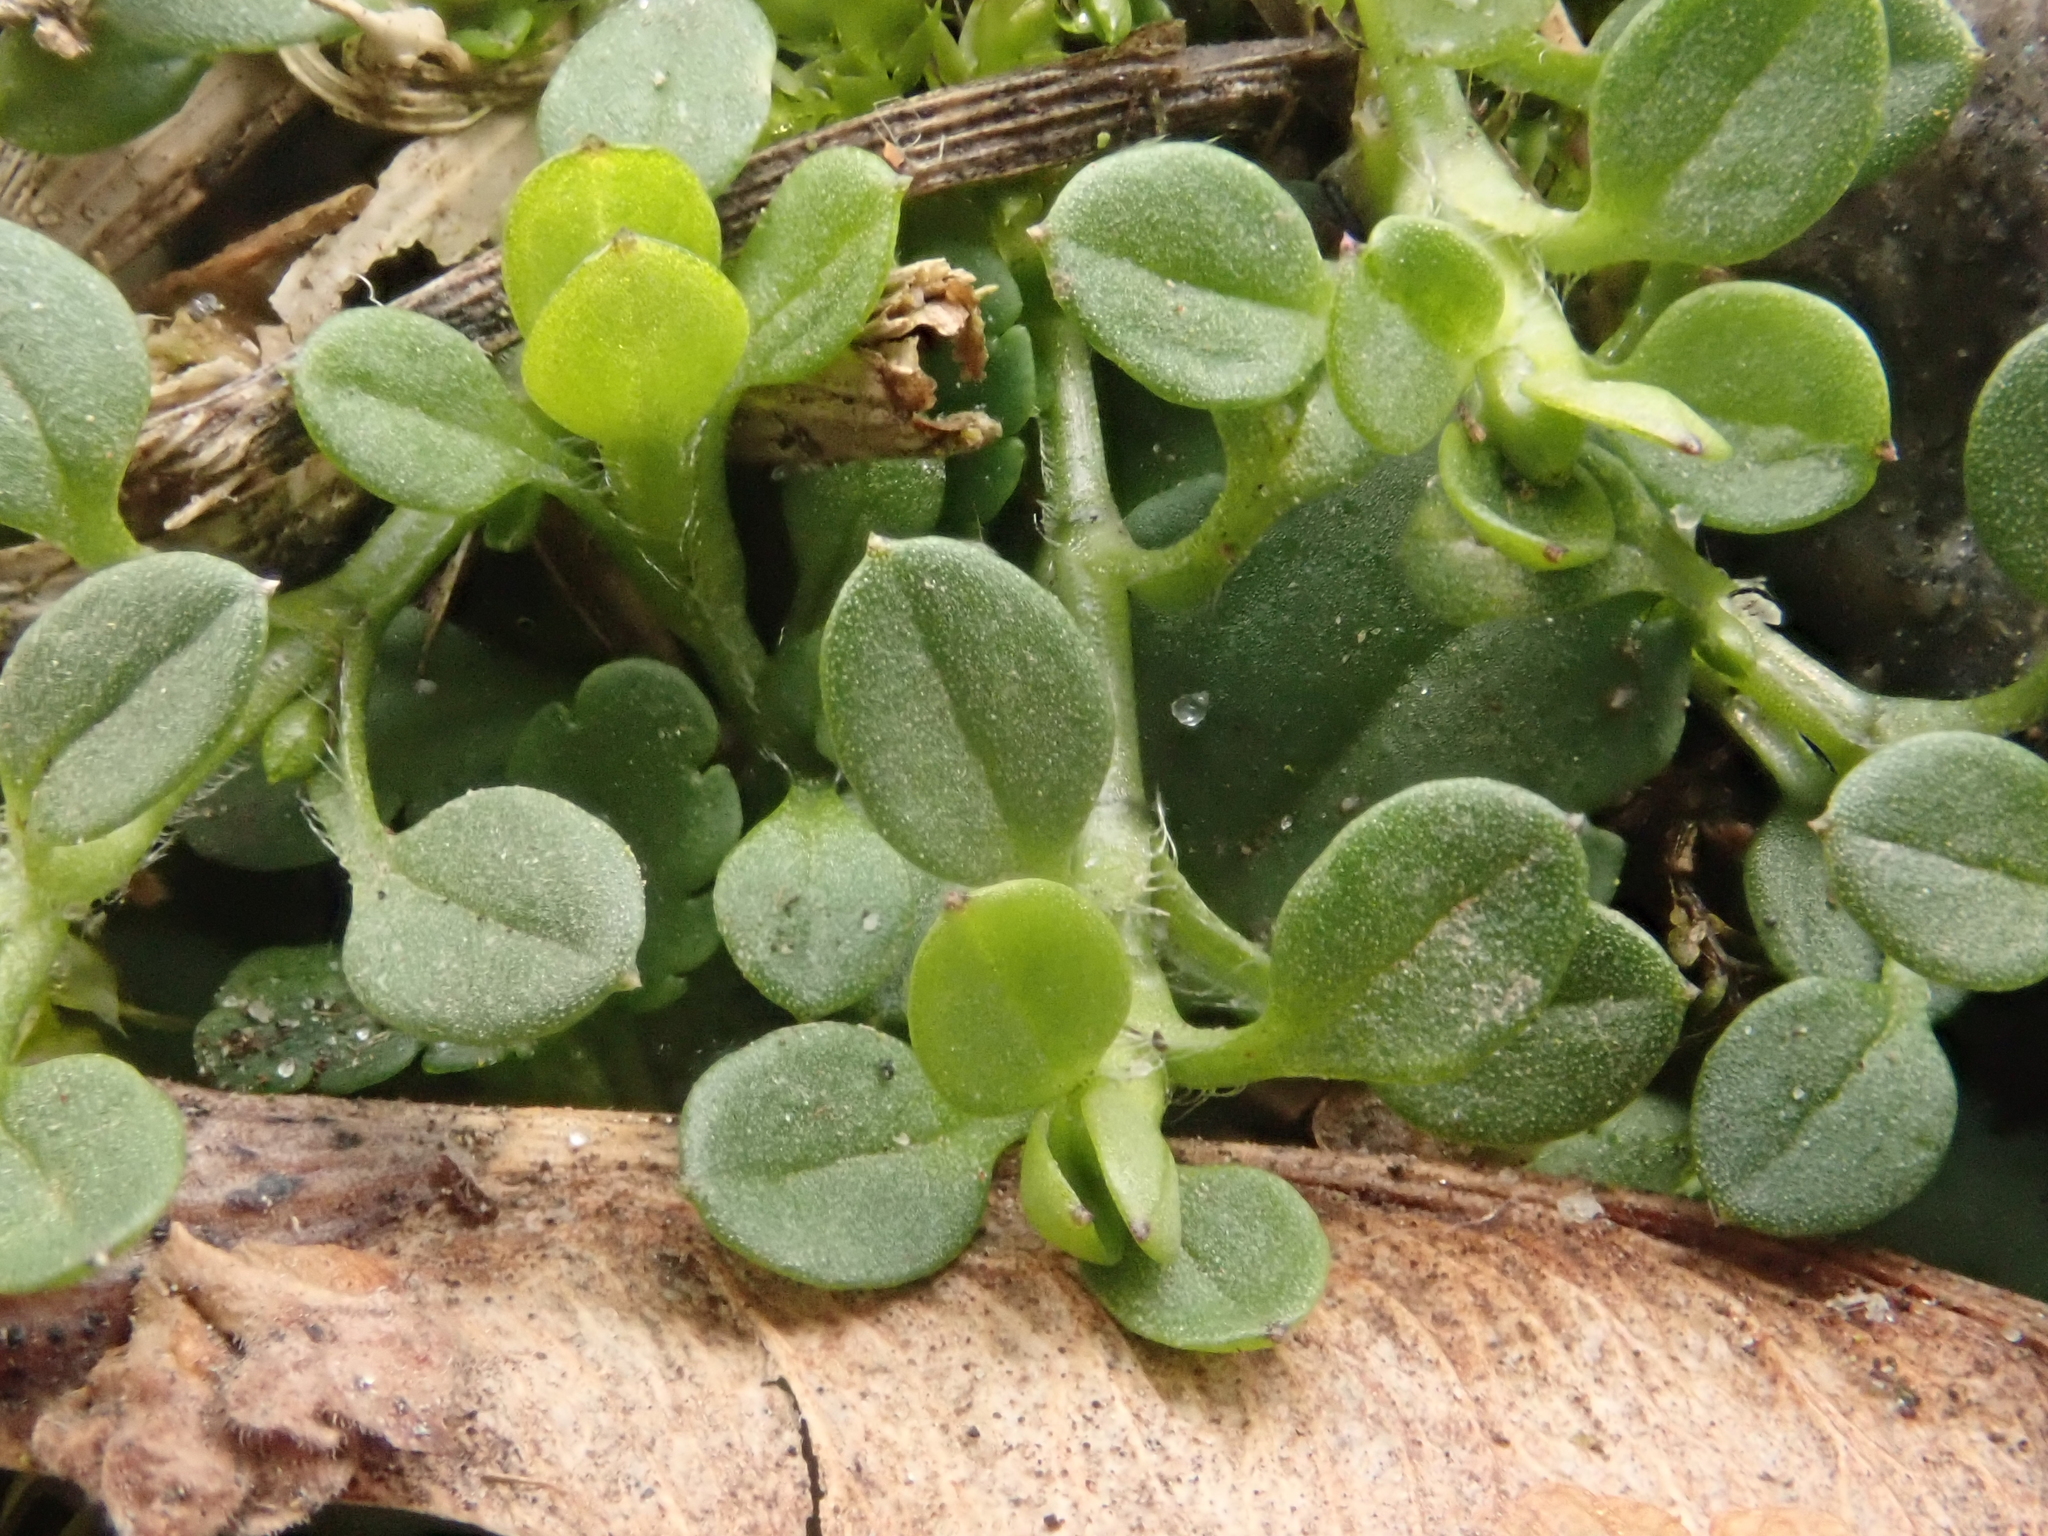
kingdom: Plantae
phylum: Tracheophyta
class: Magnoliopsida
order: Caryophyllales
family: Caryophyllaceae
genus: Stellaria
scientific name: Stellaria media
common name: Common chickweed
